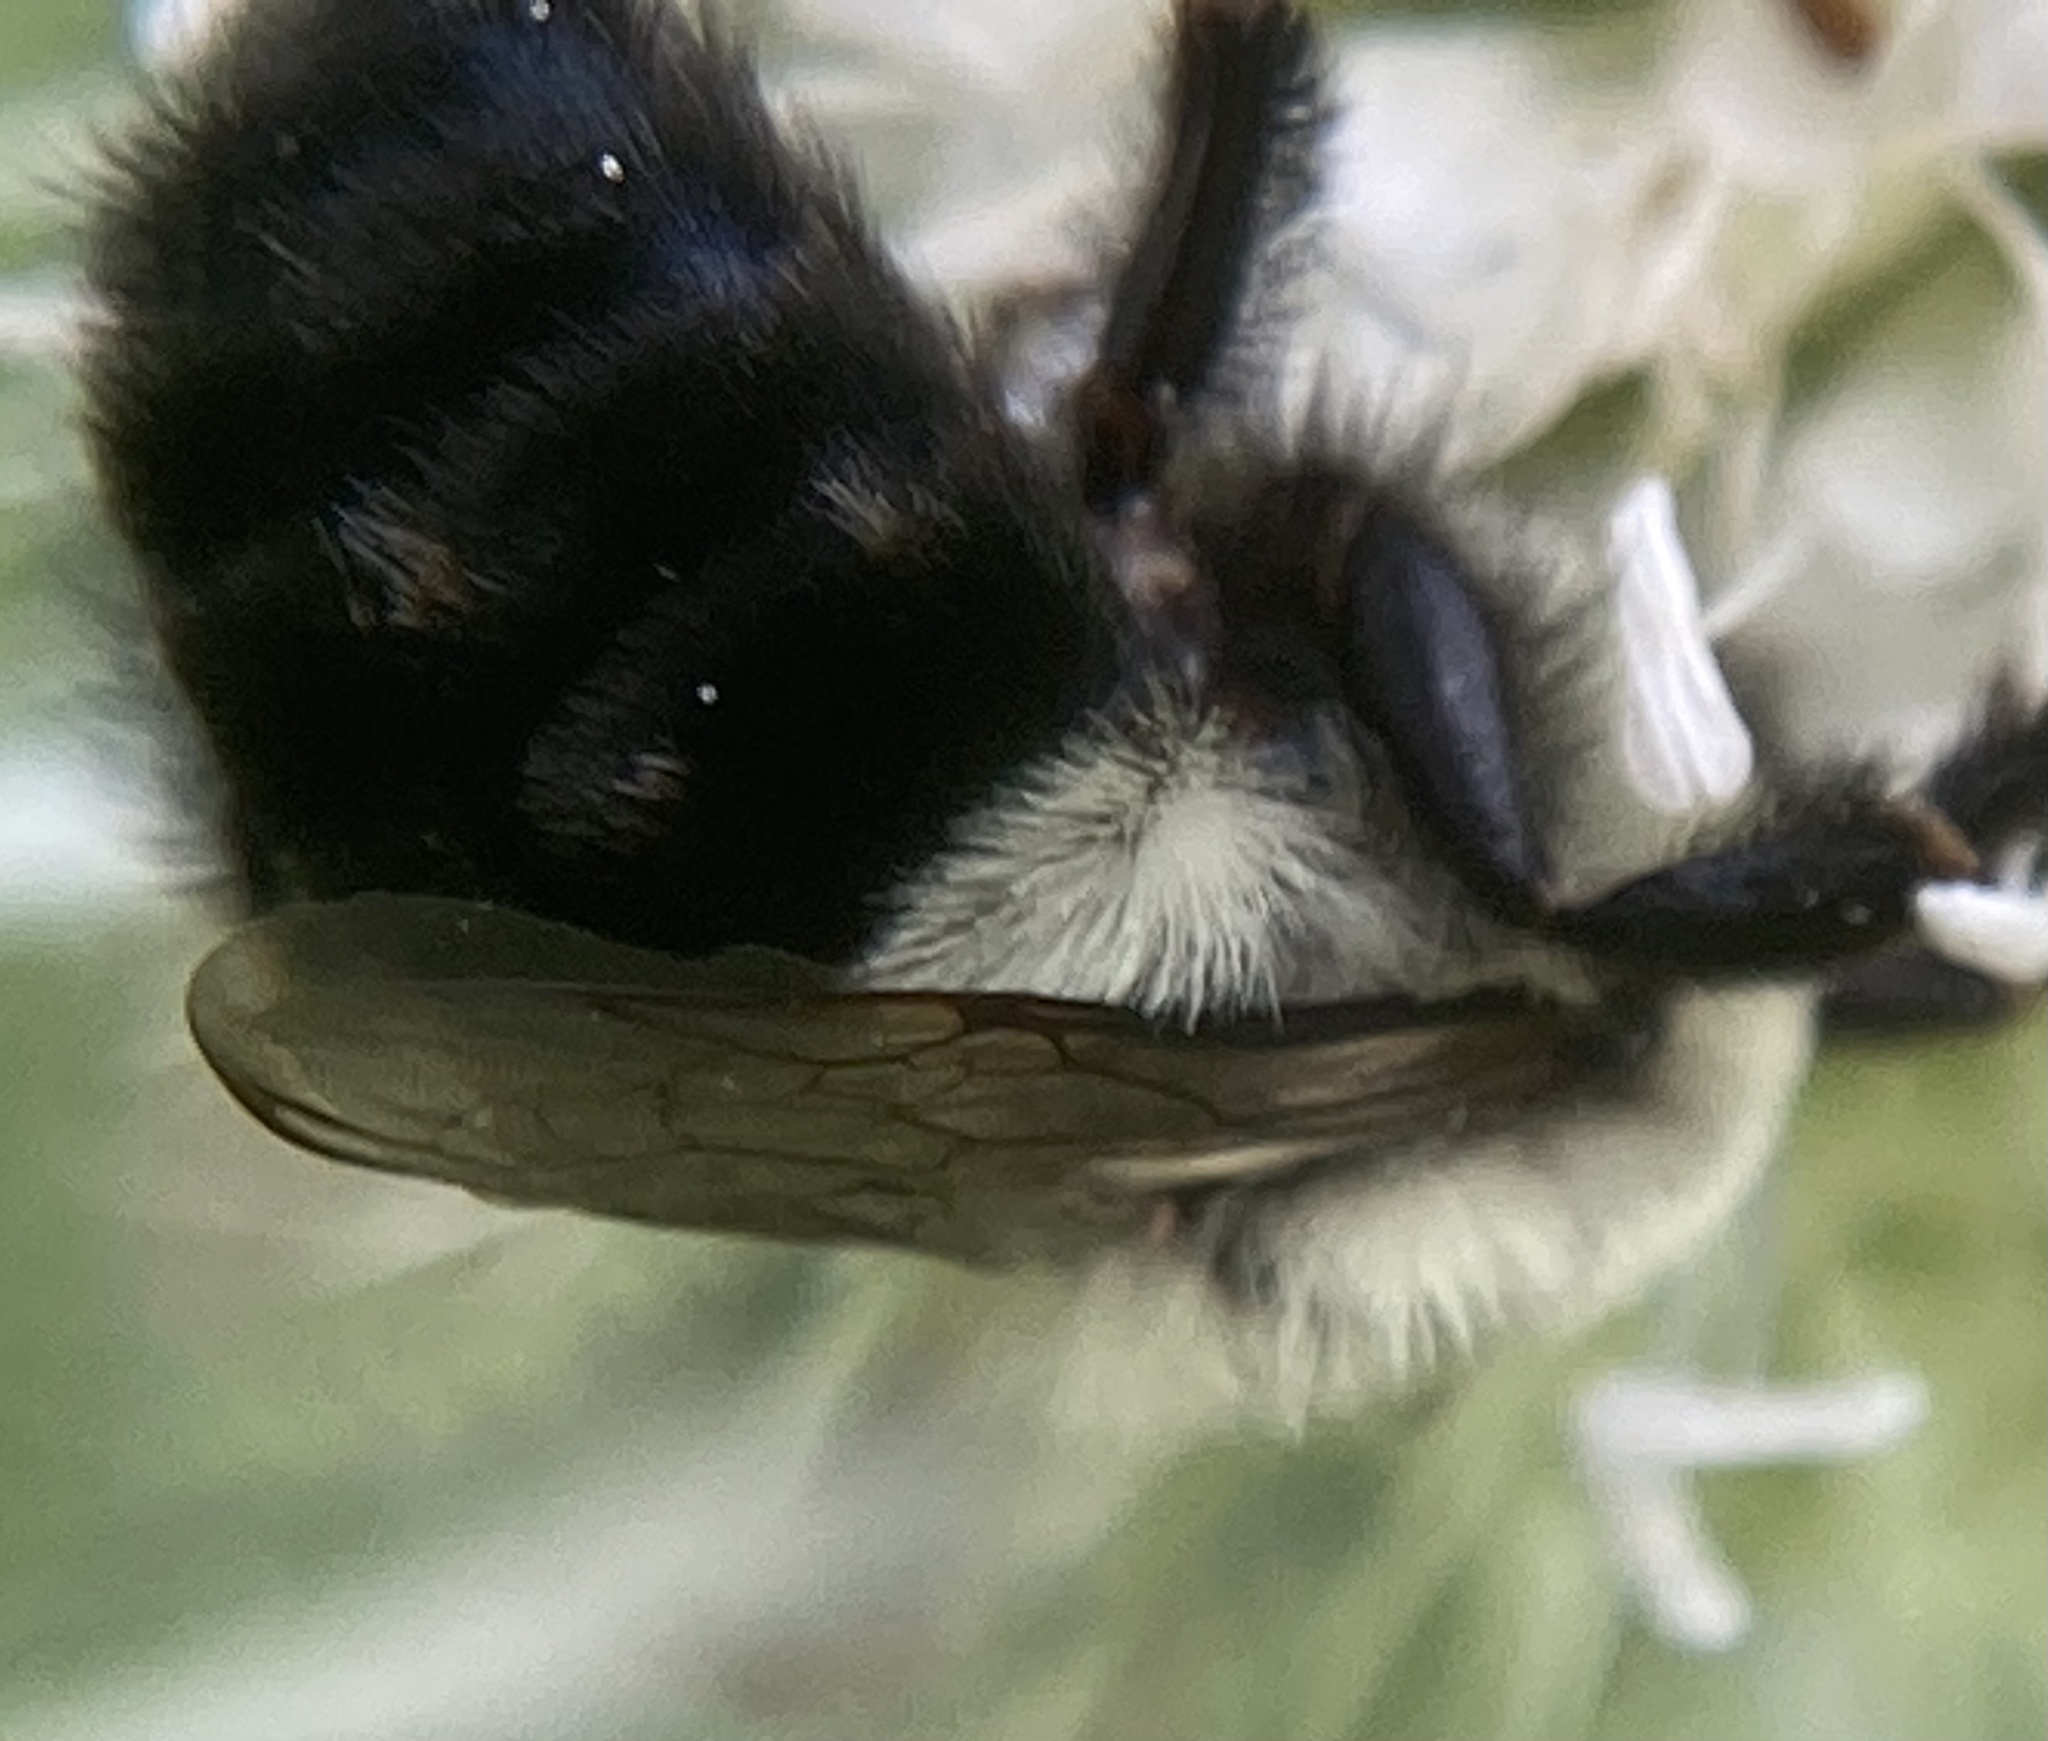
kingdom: Animalia
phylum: Arthropoda
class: Insecta
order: Hymenoptera
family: Apidae
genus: Bombus
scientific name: Bombus impatiens
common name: Common eastern bumble bee
